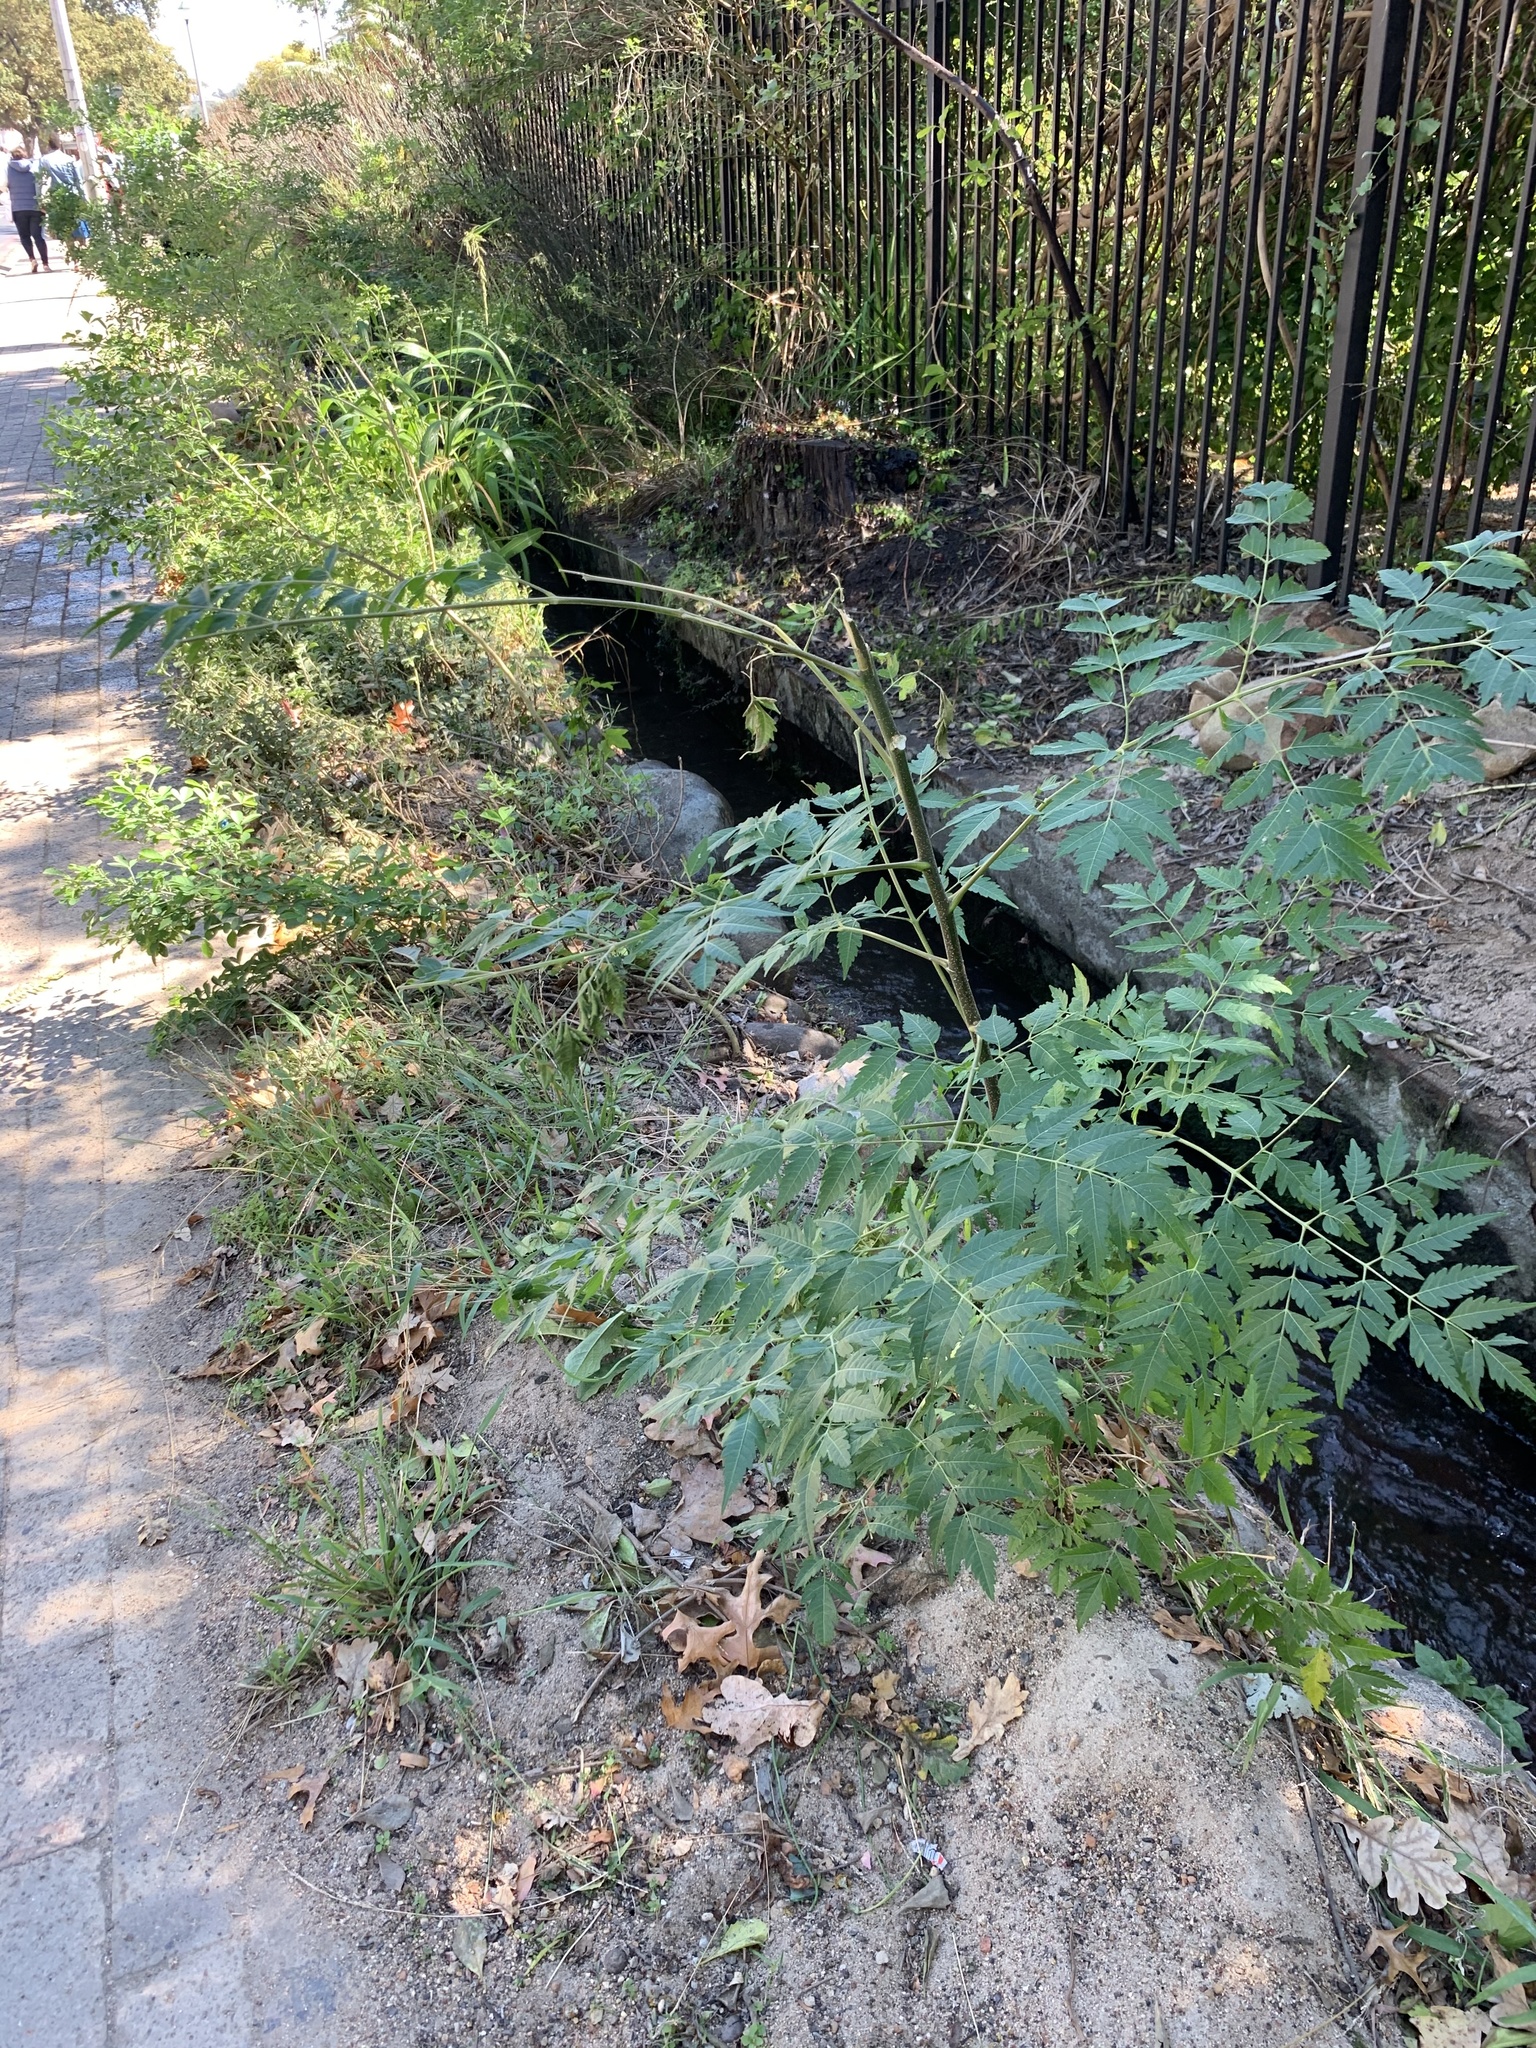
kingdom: Plantae
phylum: Tracheophyta
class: Magnoliopsida
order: Sapindales
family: Meliaceae
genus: Melia
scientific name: Melia azedarach
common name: Chinaberrytree
